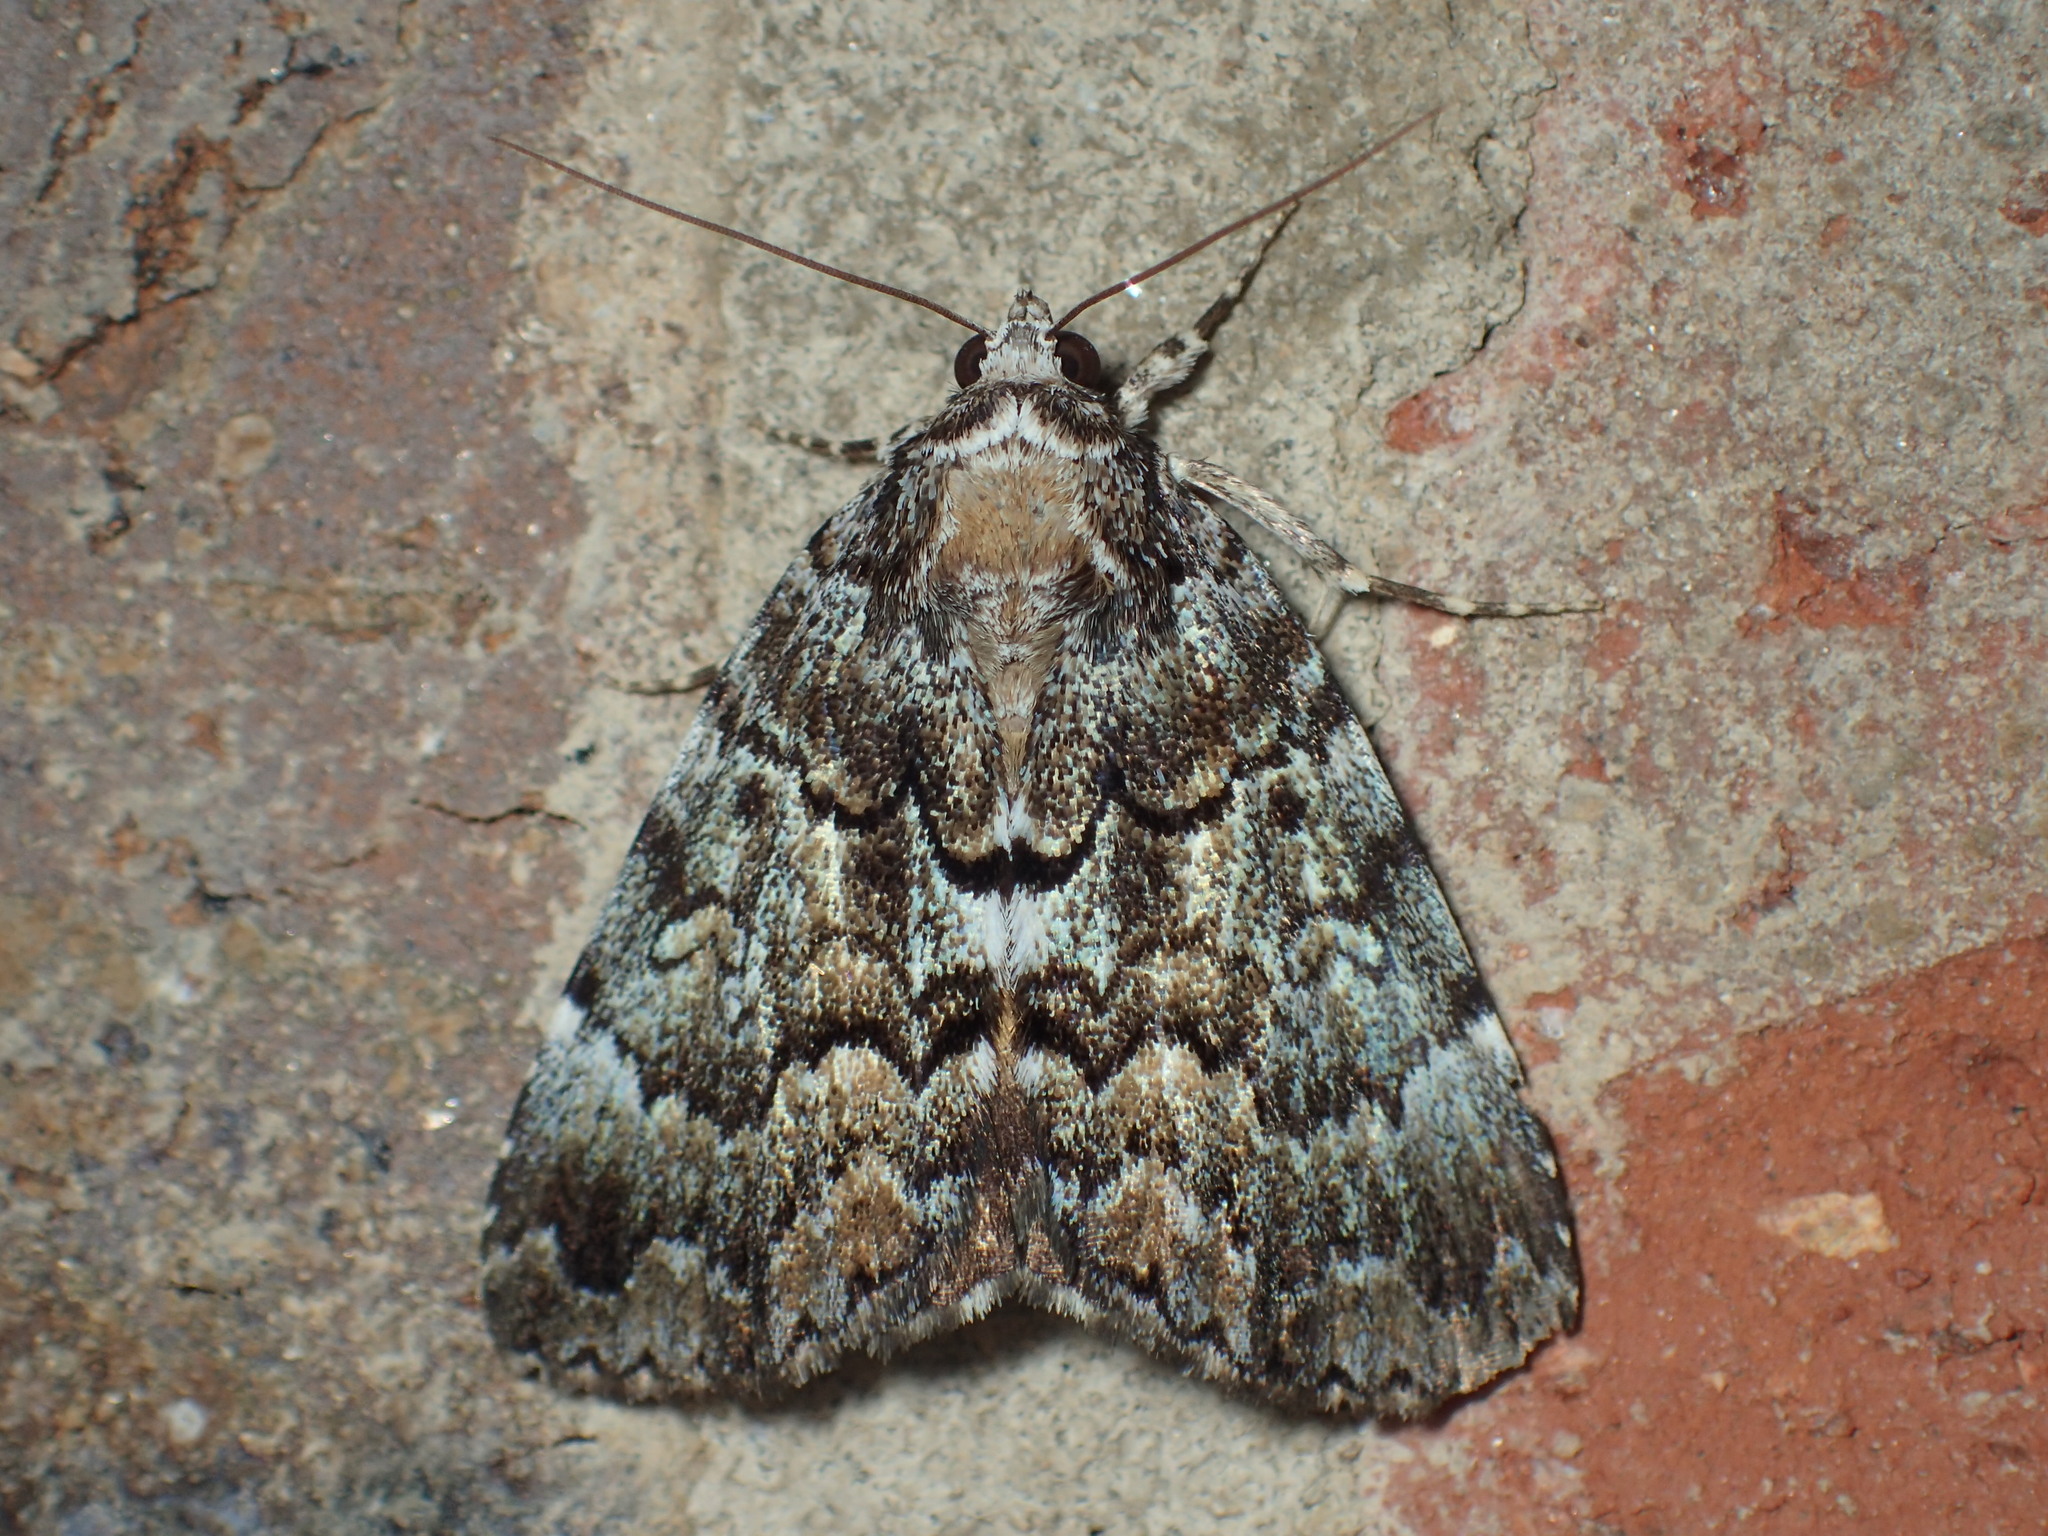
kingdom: Animalia
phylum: Arthropoda
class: Insecta
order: Lepidoptera
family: Erebidae
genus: Allotria
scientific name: Allotria elonympha
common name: False underwing
